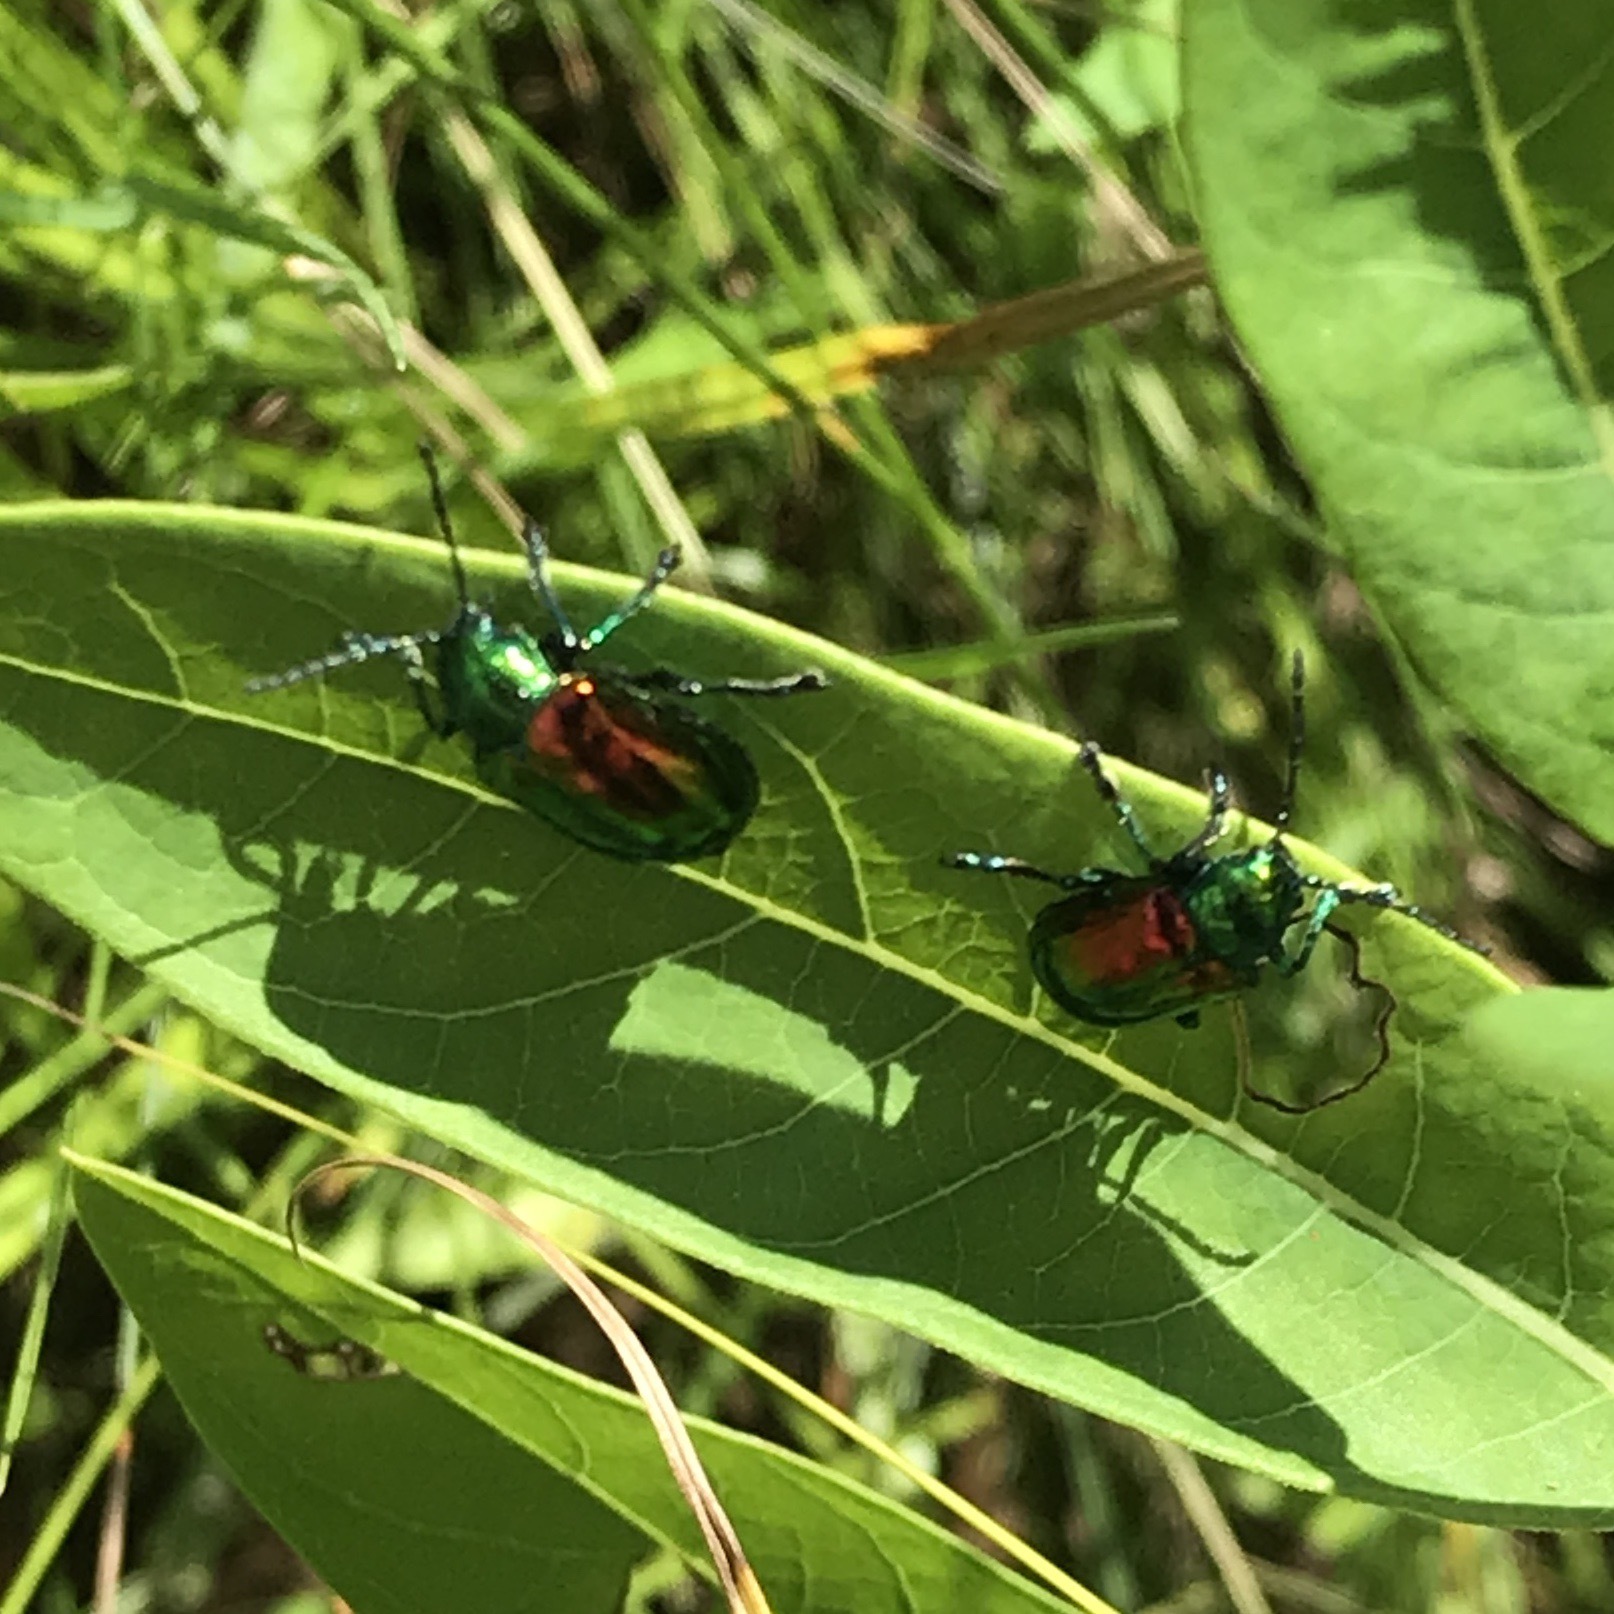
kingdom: Animalia
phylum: Arthropoda
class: Insecta
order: Coleoptera
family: Chrysomelidae
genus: Chrysochus
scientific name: Chrysochus auratus
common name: Dogbane leaf beetle
